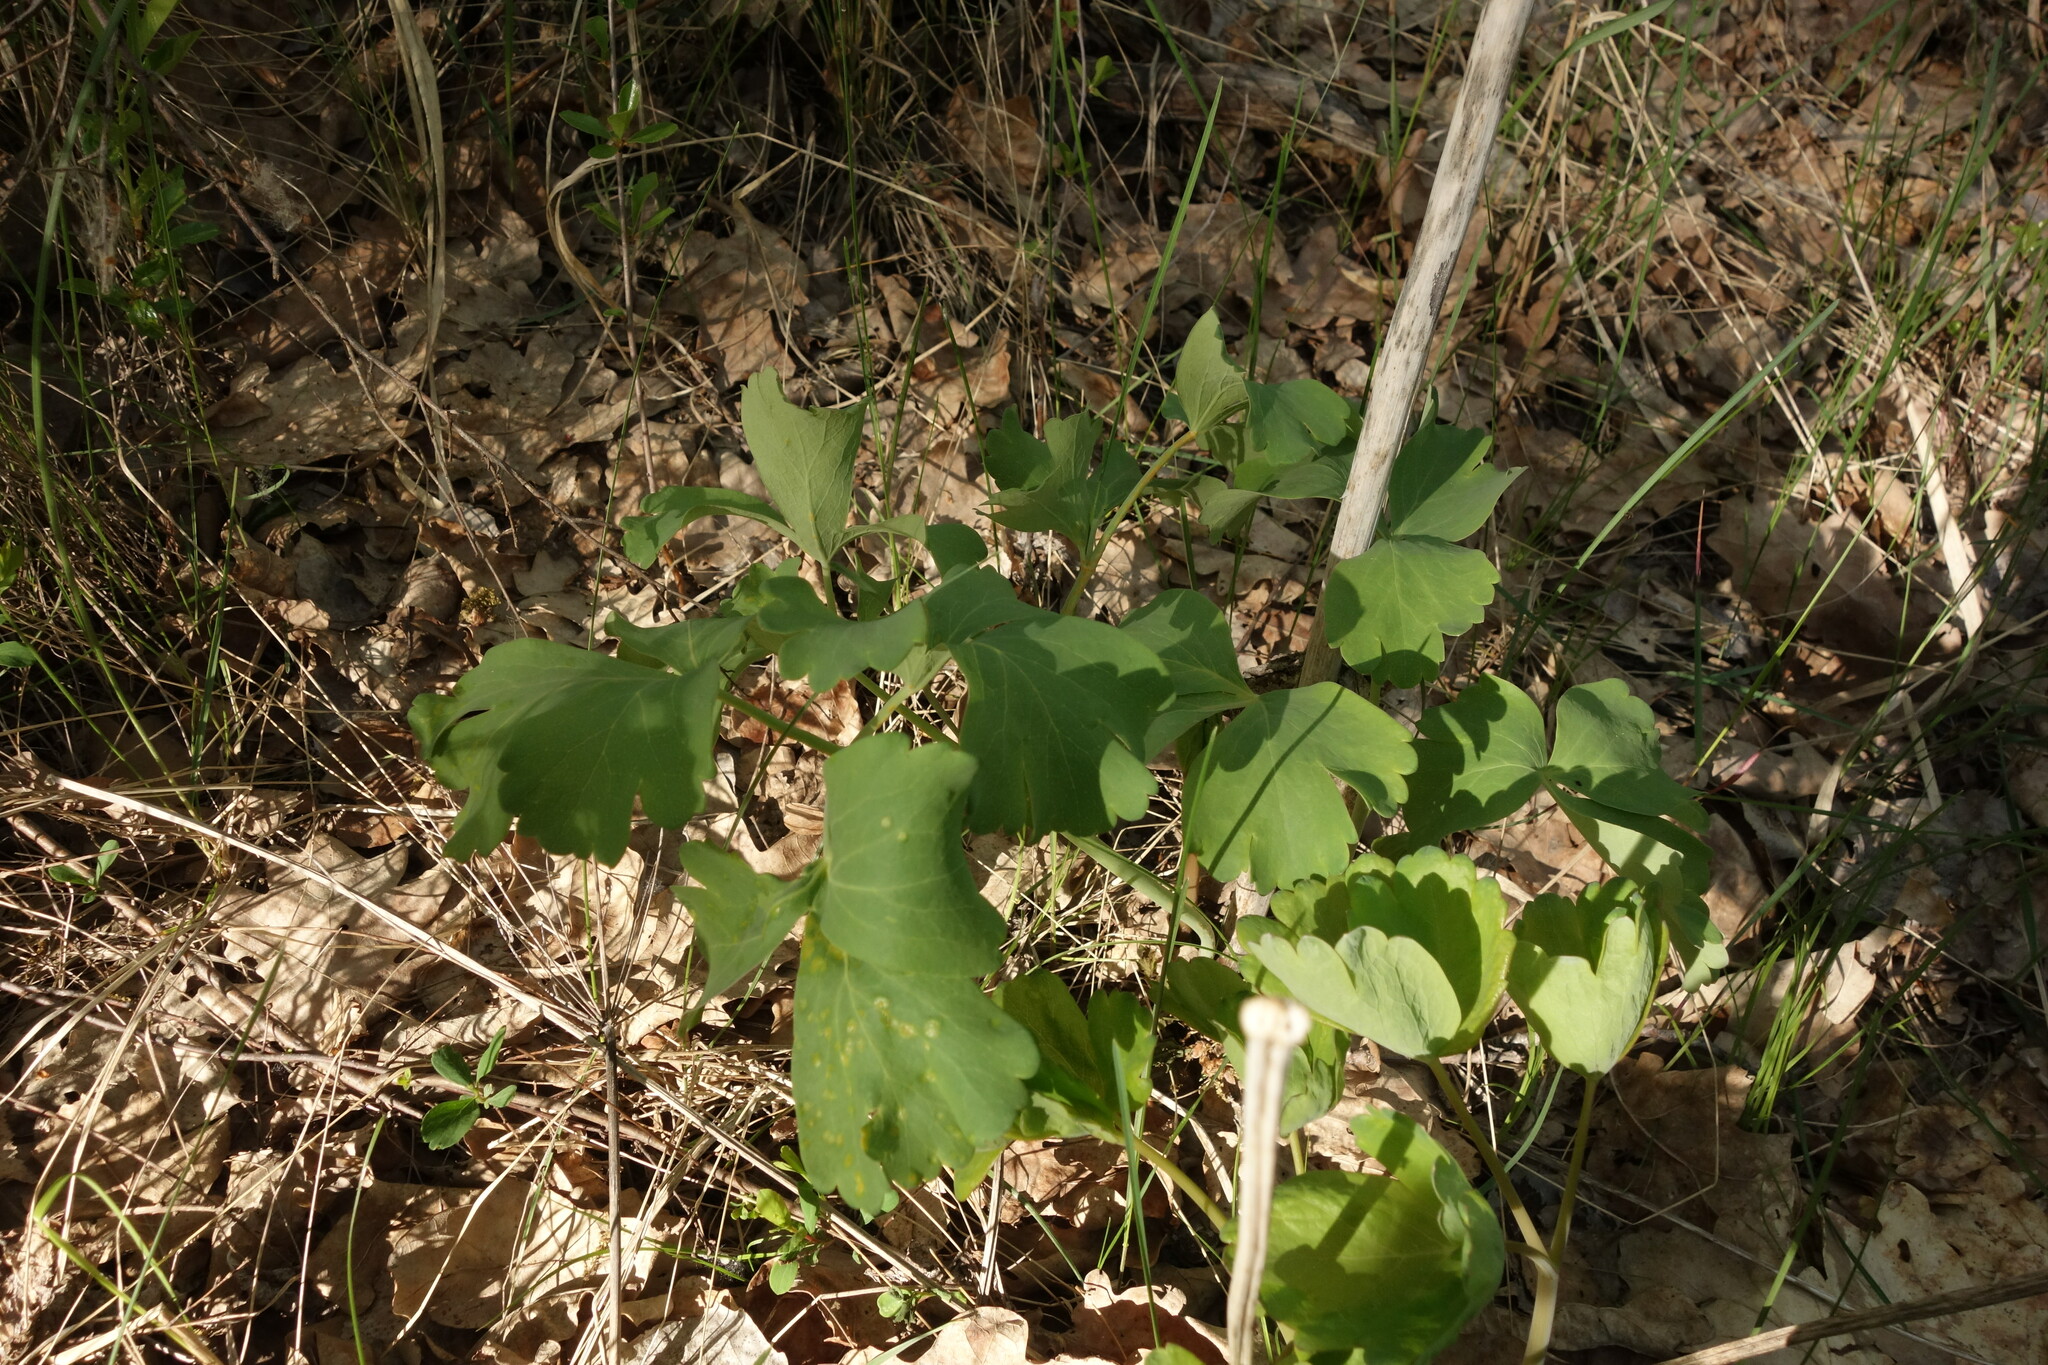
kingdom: Plantae
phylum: Tracheophyta
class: Magnoliopsida
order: Apiales
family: Apiaceae
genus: Laser
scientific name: Laser trilobum
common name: Laser
